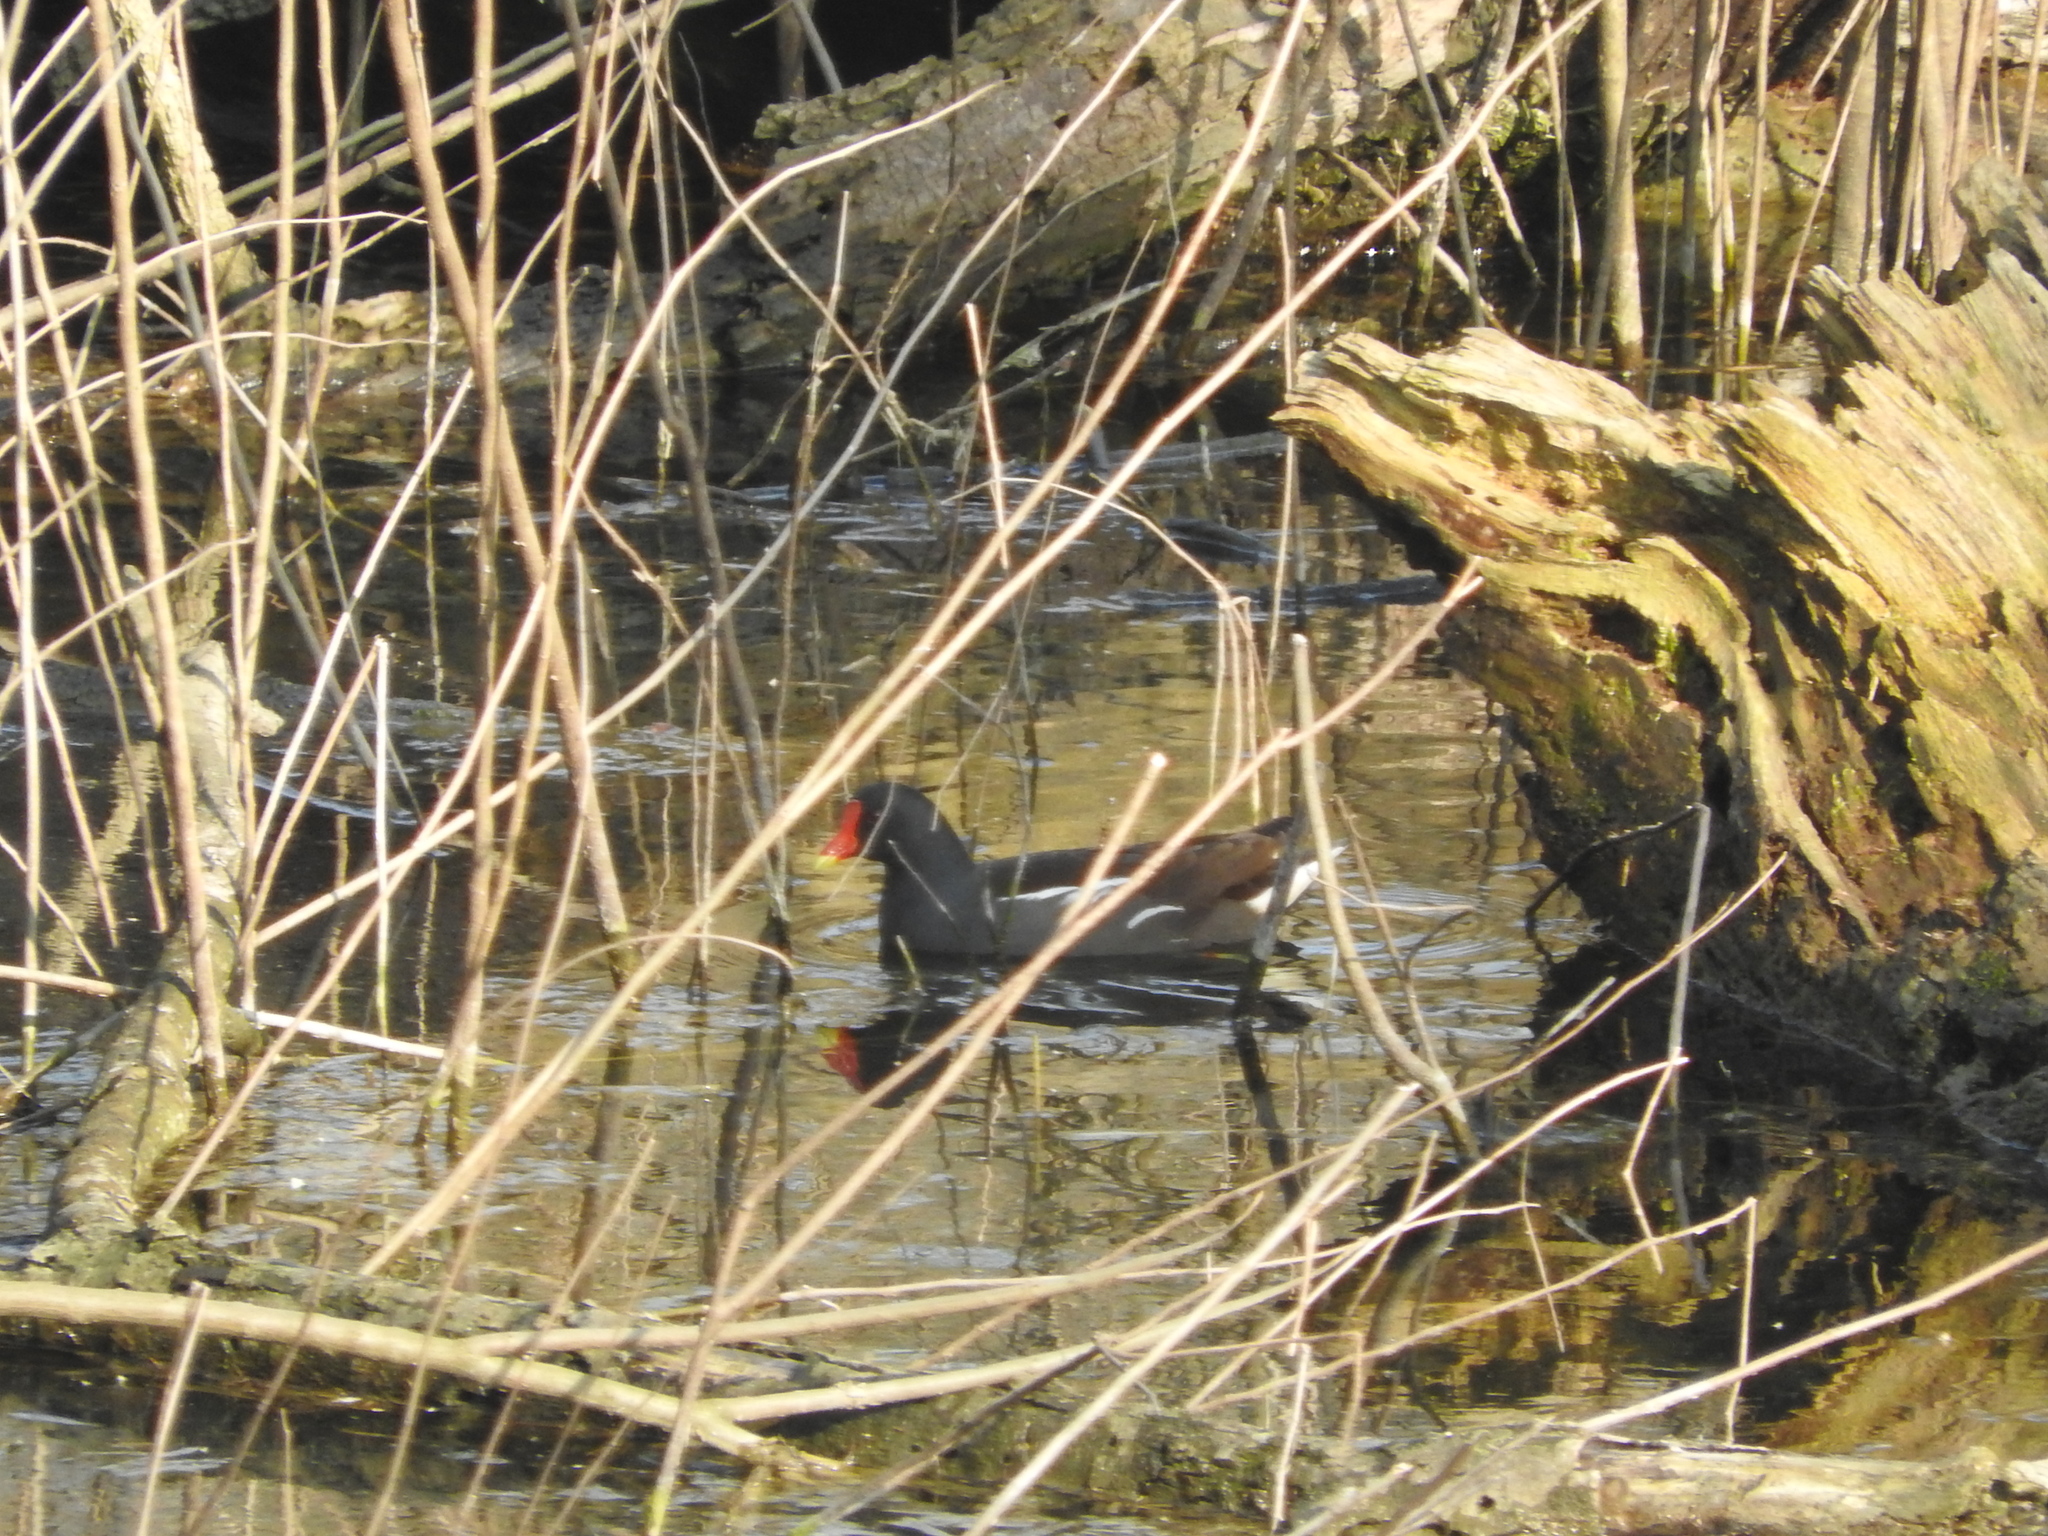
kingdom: Animalia
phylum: Chordata
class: Aves
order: Gruiformes
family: Rallidae
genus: Gallinula
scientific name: Gallinula chloropus
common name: Common moorhen
